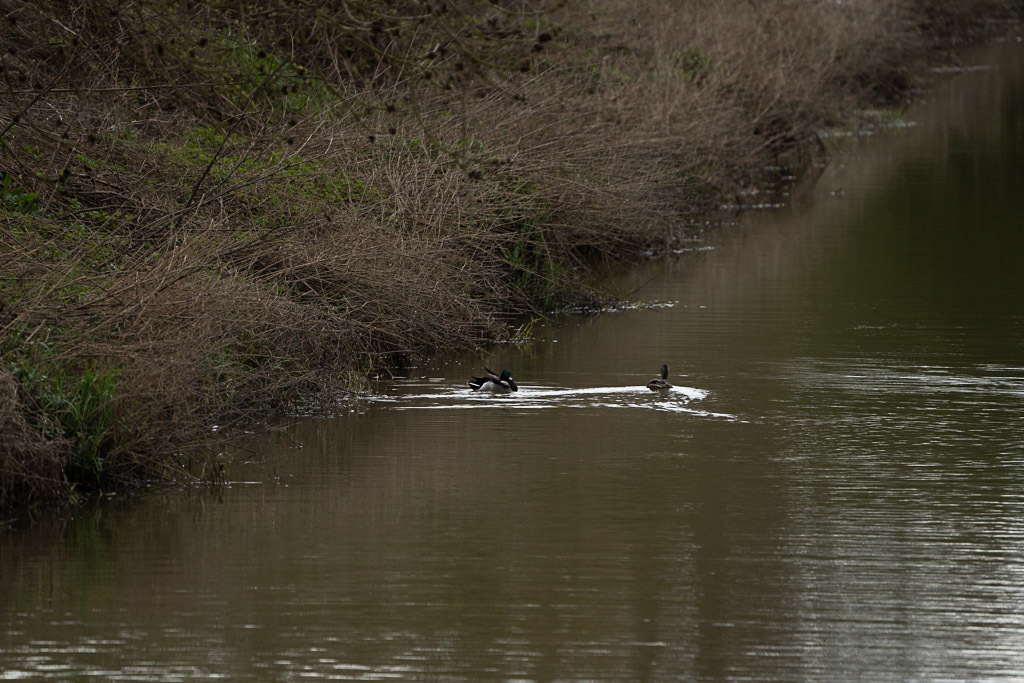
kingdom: Animalia
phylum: Chordata
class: Aves
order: Anseriformes
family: Anatidae
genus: Anas
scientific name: Anas platyrhynchos
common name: Mallard
